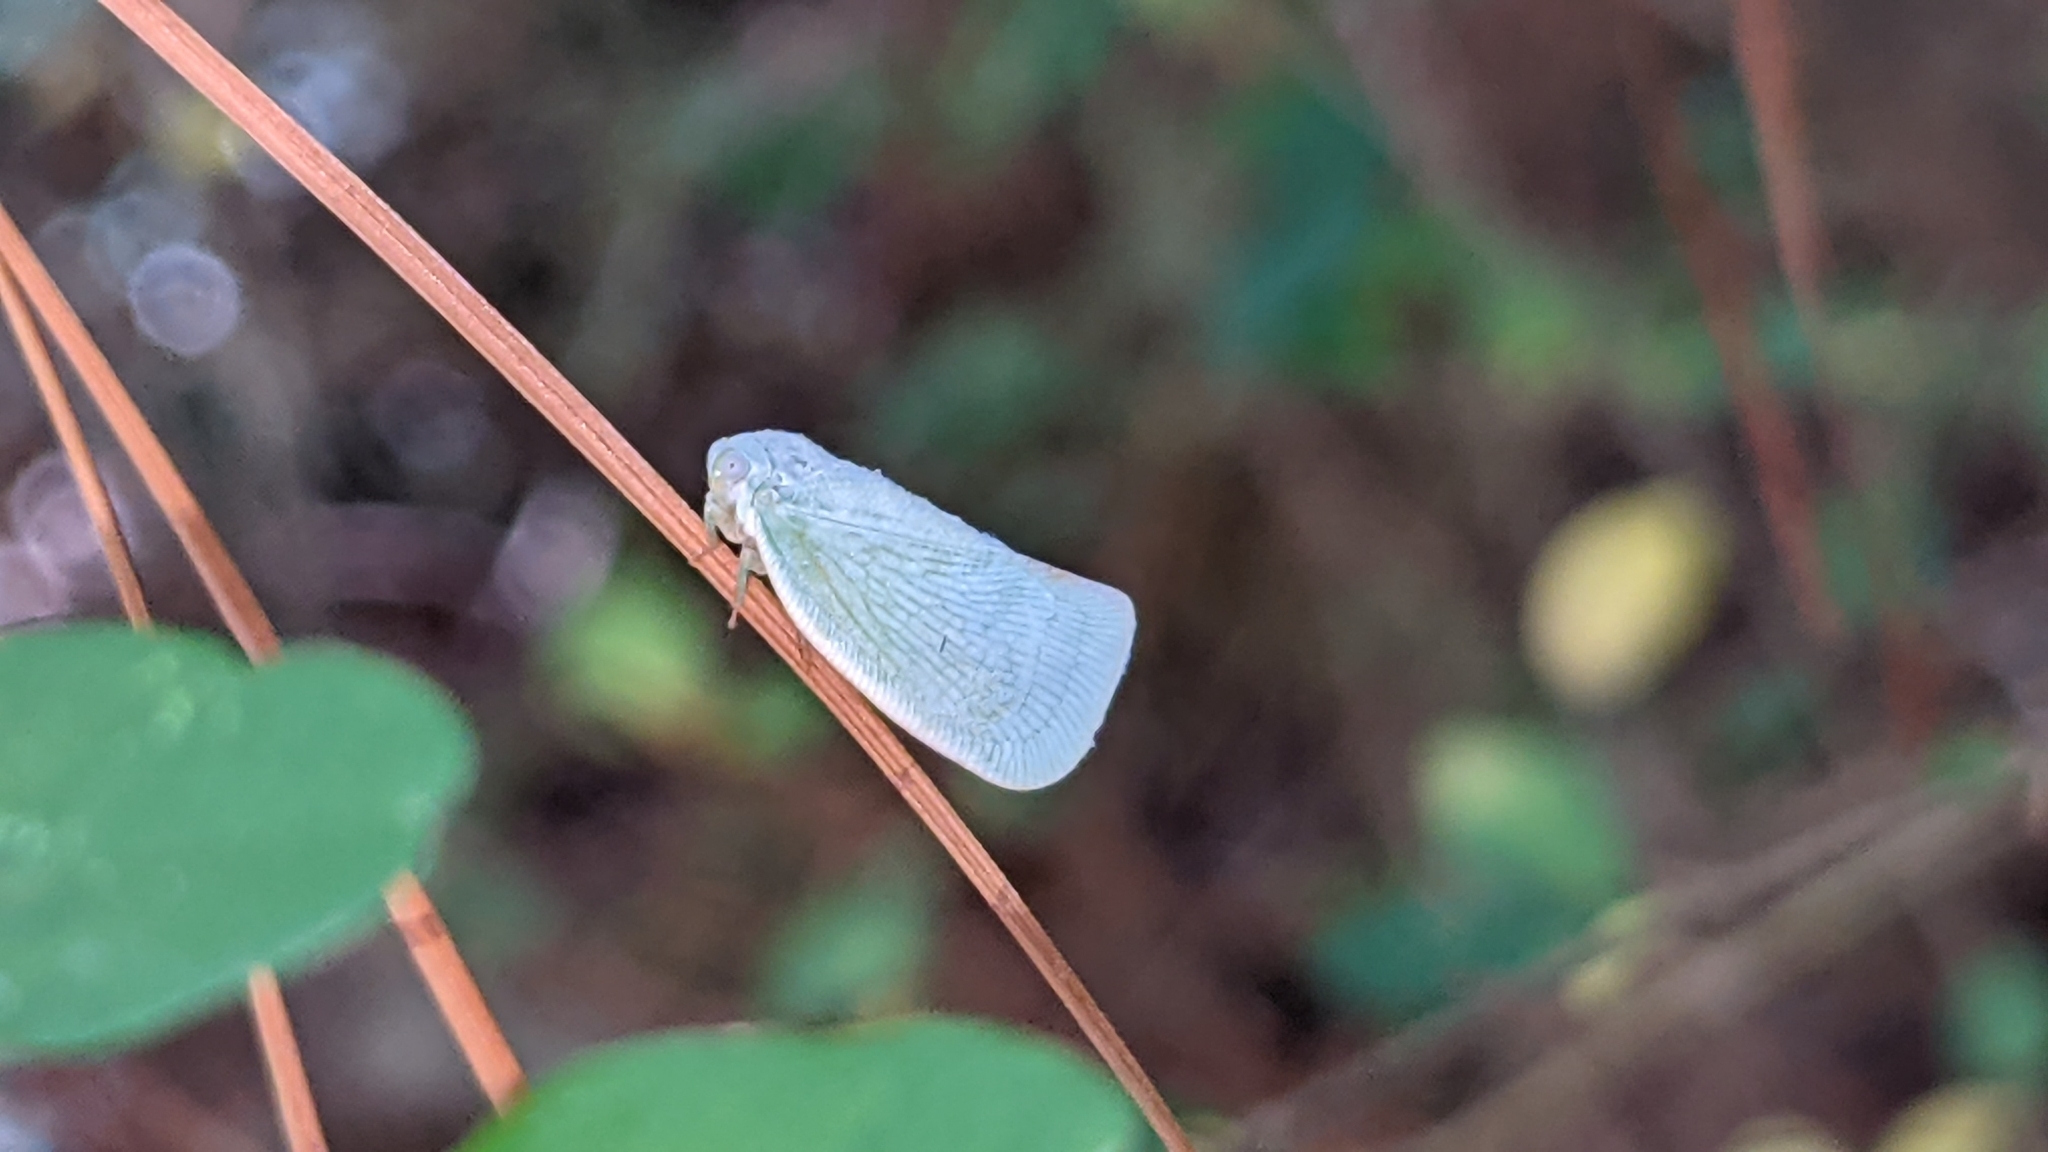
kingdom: Animalia
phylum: Arthropoda
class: Insecta
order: Hemiptera
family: Flatidae
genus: Flatormenis
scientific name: Flatormenis proxima
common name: Northern flatid planthopper
